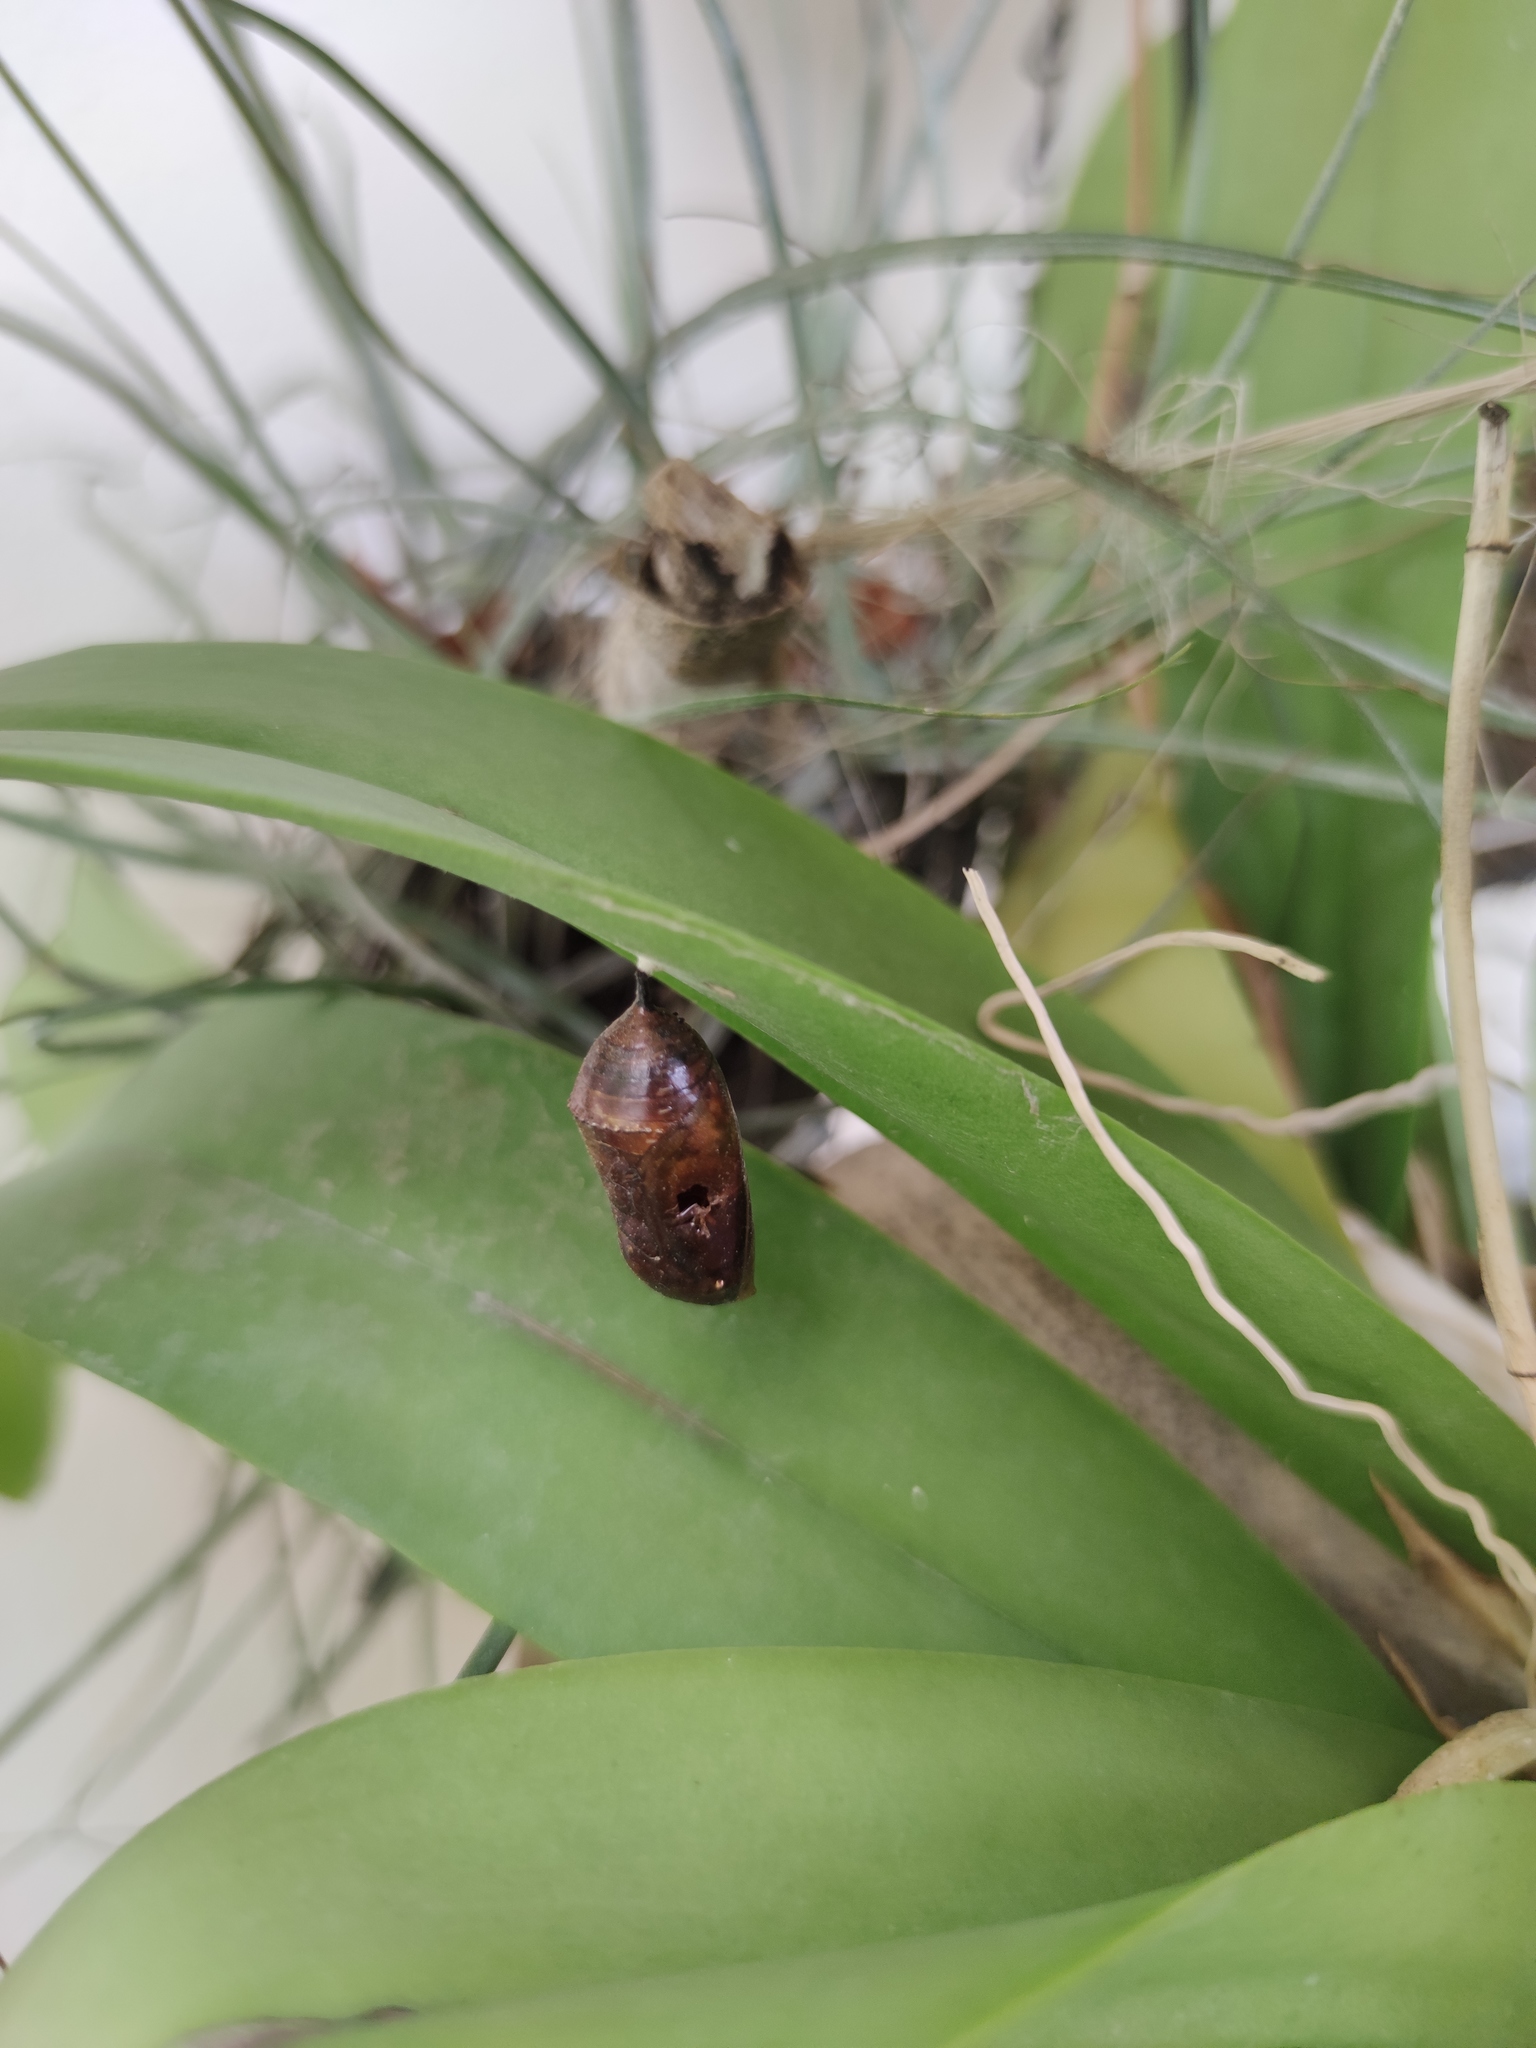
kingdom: Animalia
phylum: Arthropoda
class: Insecta
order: Lepidoptera
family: Nymphalidae
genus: Danaus
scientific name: Danaus plexippus
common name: Monarch
